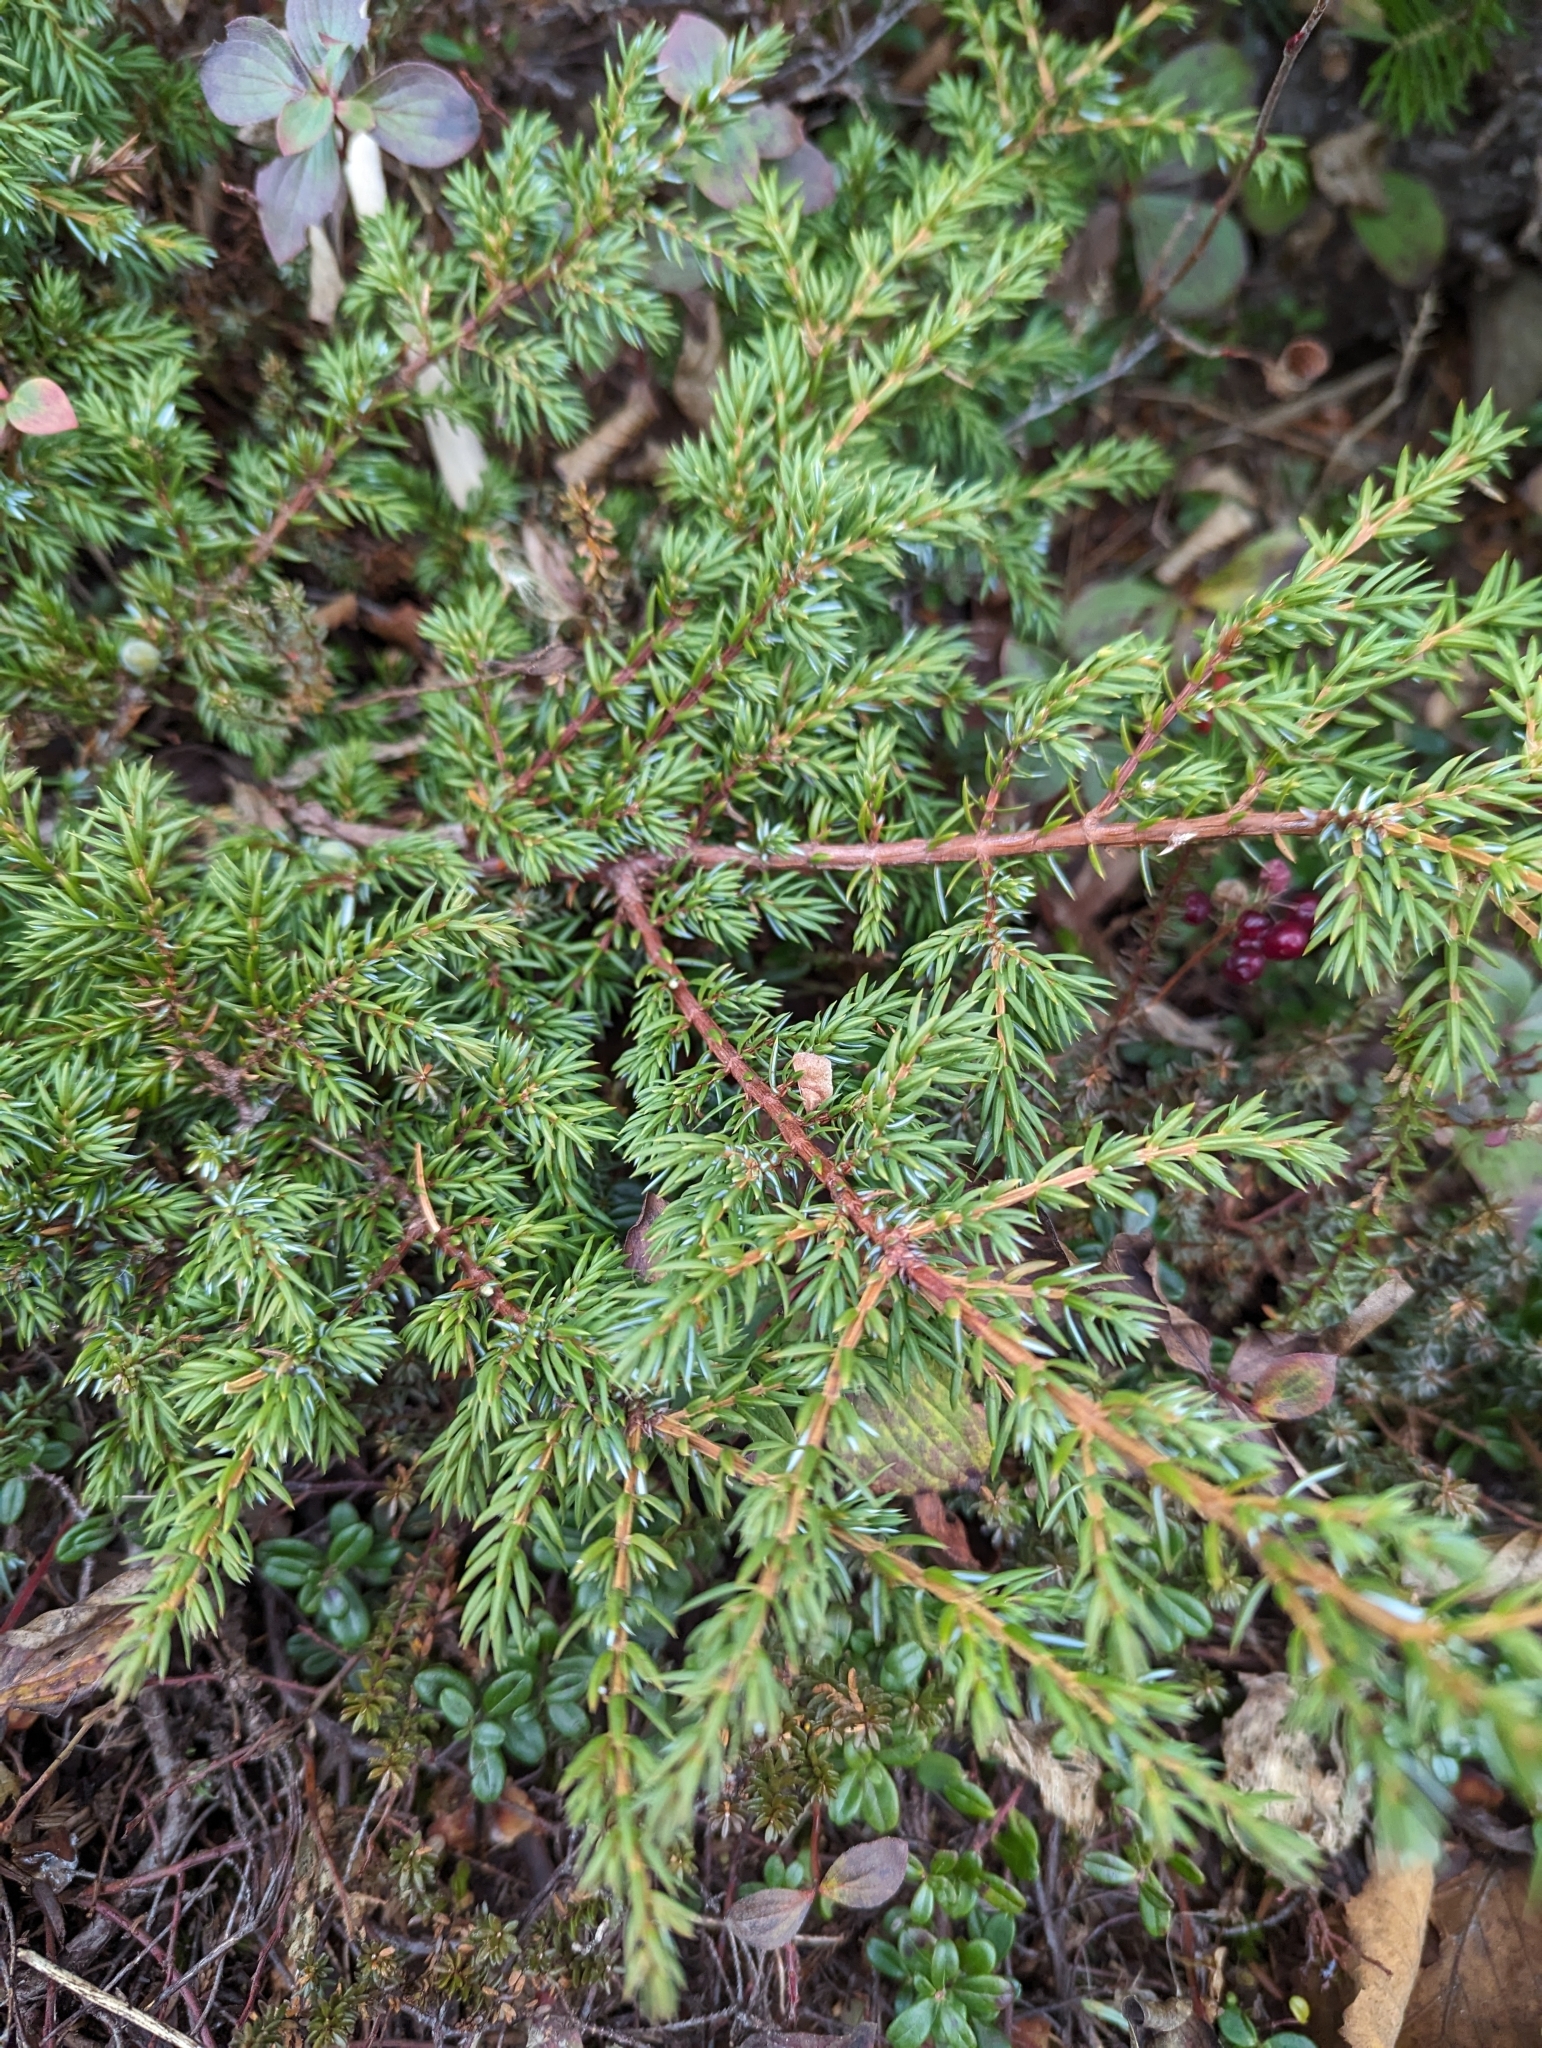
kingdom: Plantae
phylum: Tracheophyta
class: Pinopsida
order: Pinales
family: Cupressaceae
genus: Juniperus
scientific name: Juniperus communis
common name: Common juniper
